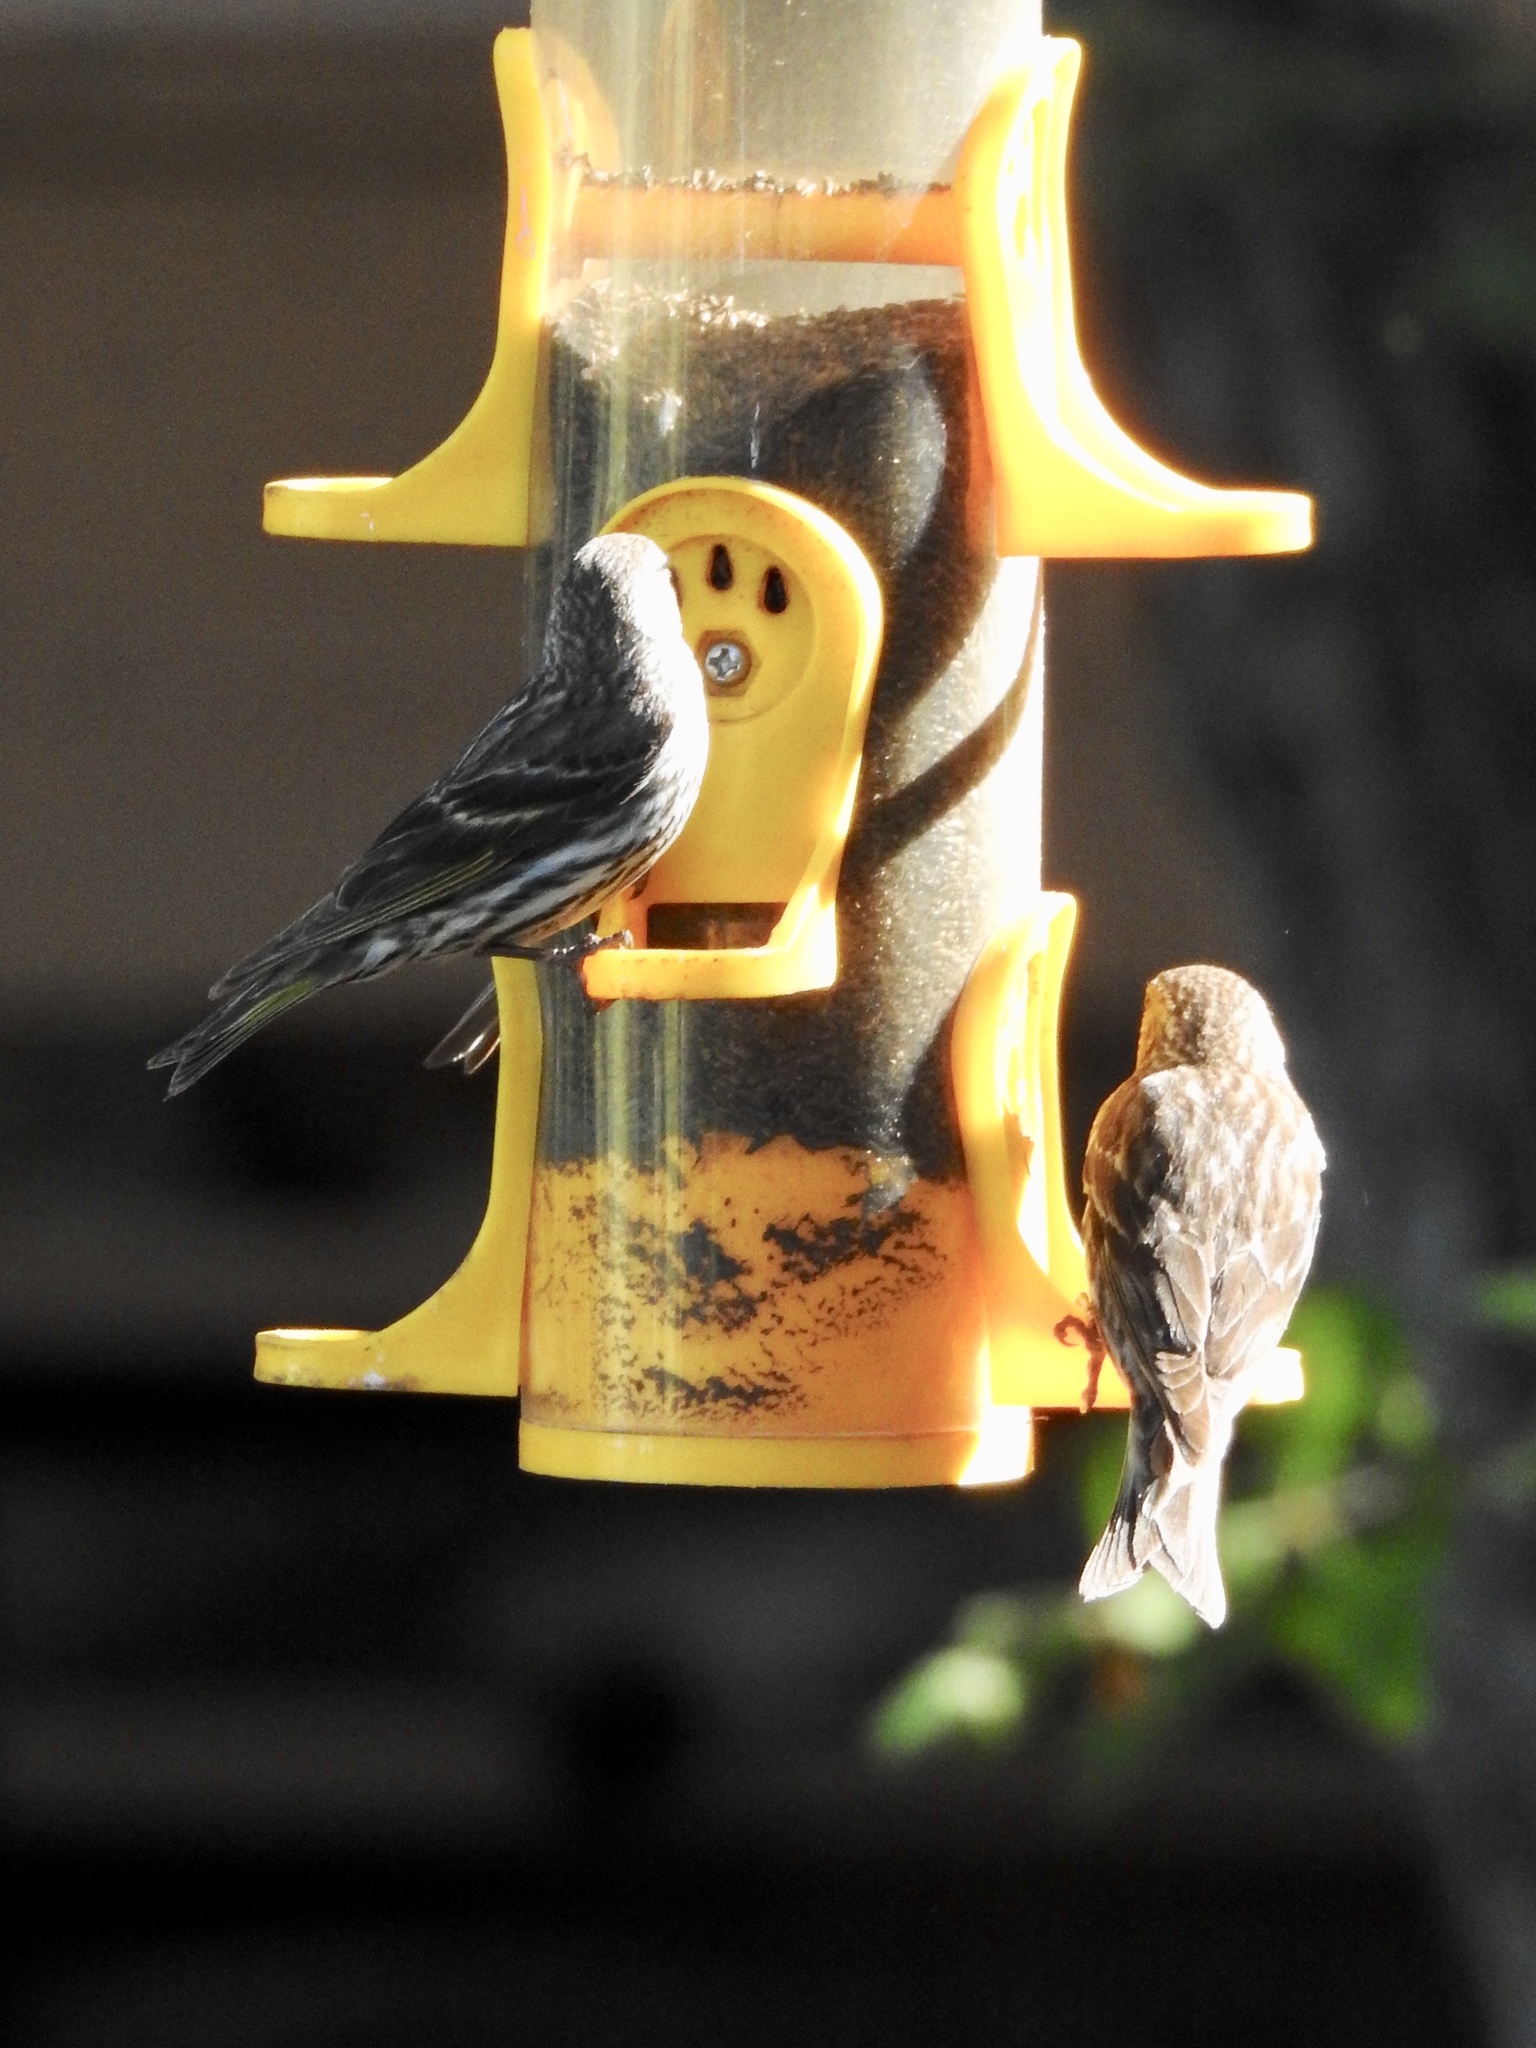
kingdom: Animalia
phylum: Chordata
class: Aves
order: Passeriformes
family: Fringillidae
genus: Spinus
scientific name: Spinus pinus
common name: Pine siskin
